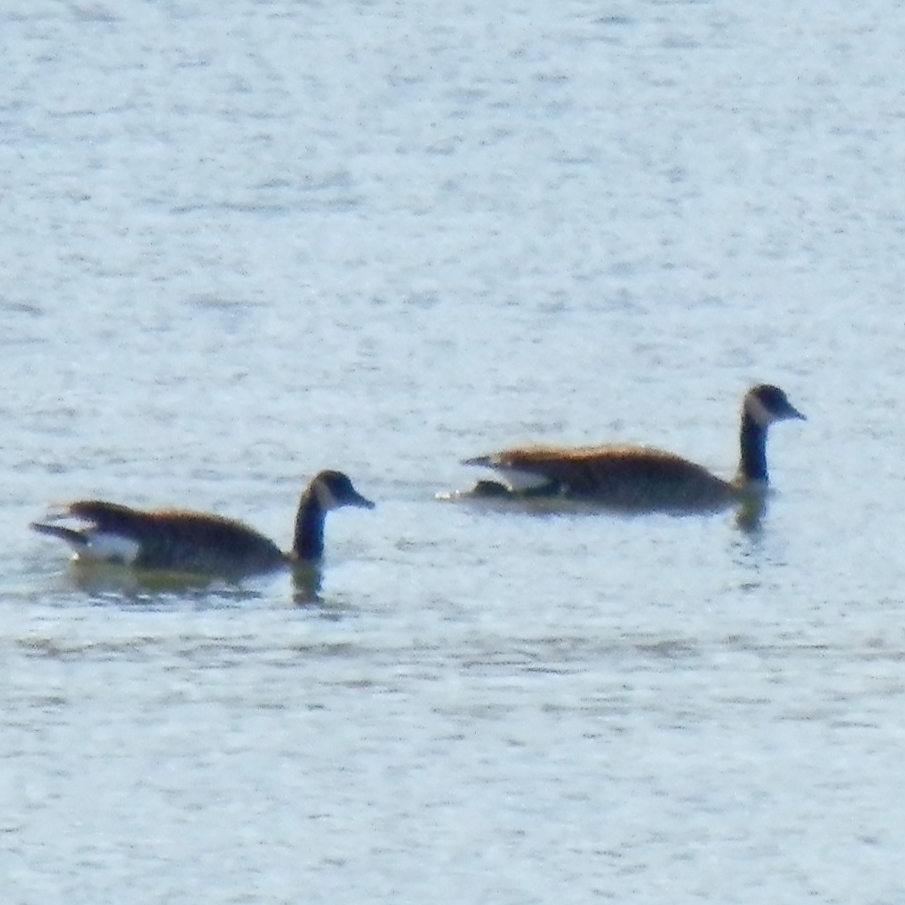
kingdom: Animalia
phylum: Chordata
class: Aves
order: Anseriformes
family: Anatidae
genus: Branta
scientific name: Branta canadensis
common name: Canada goose
